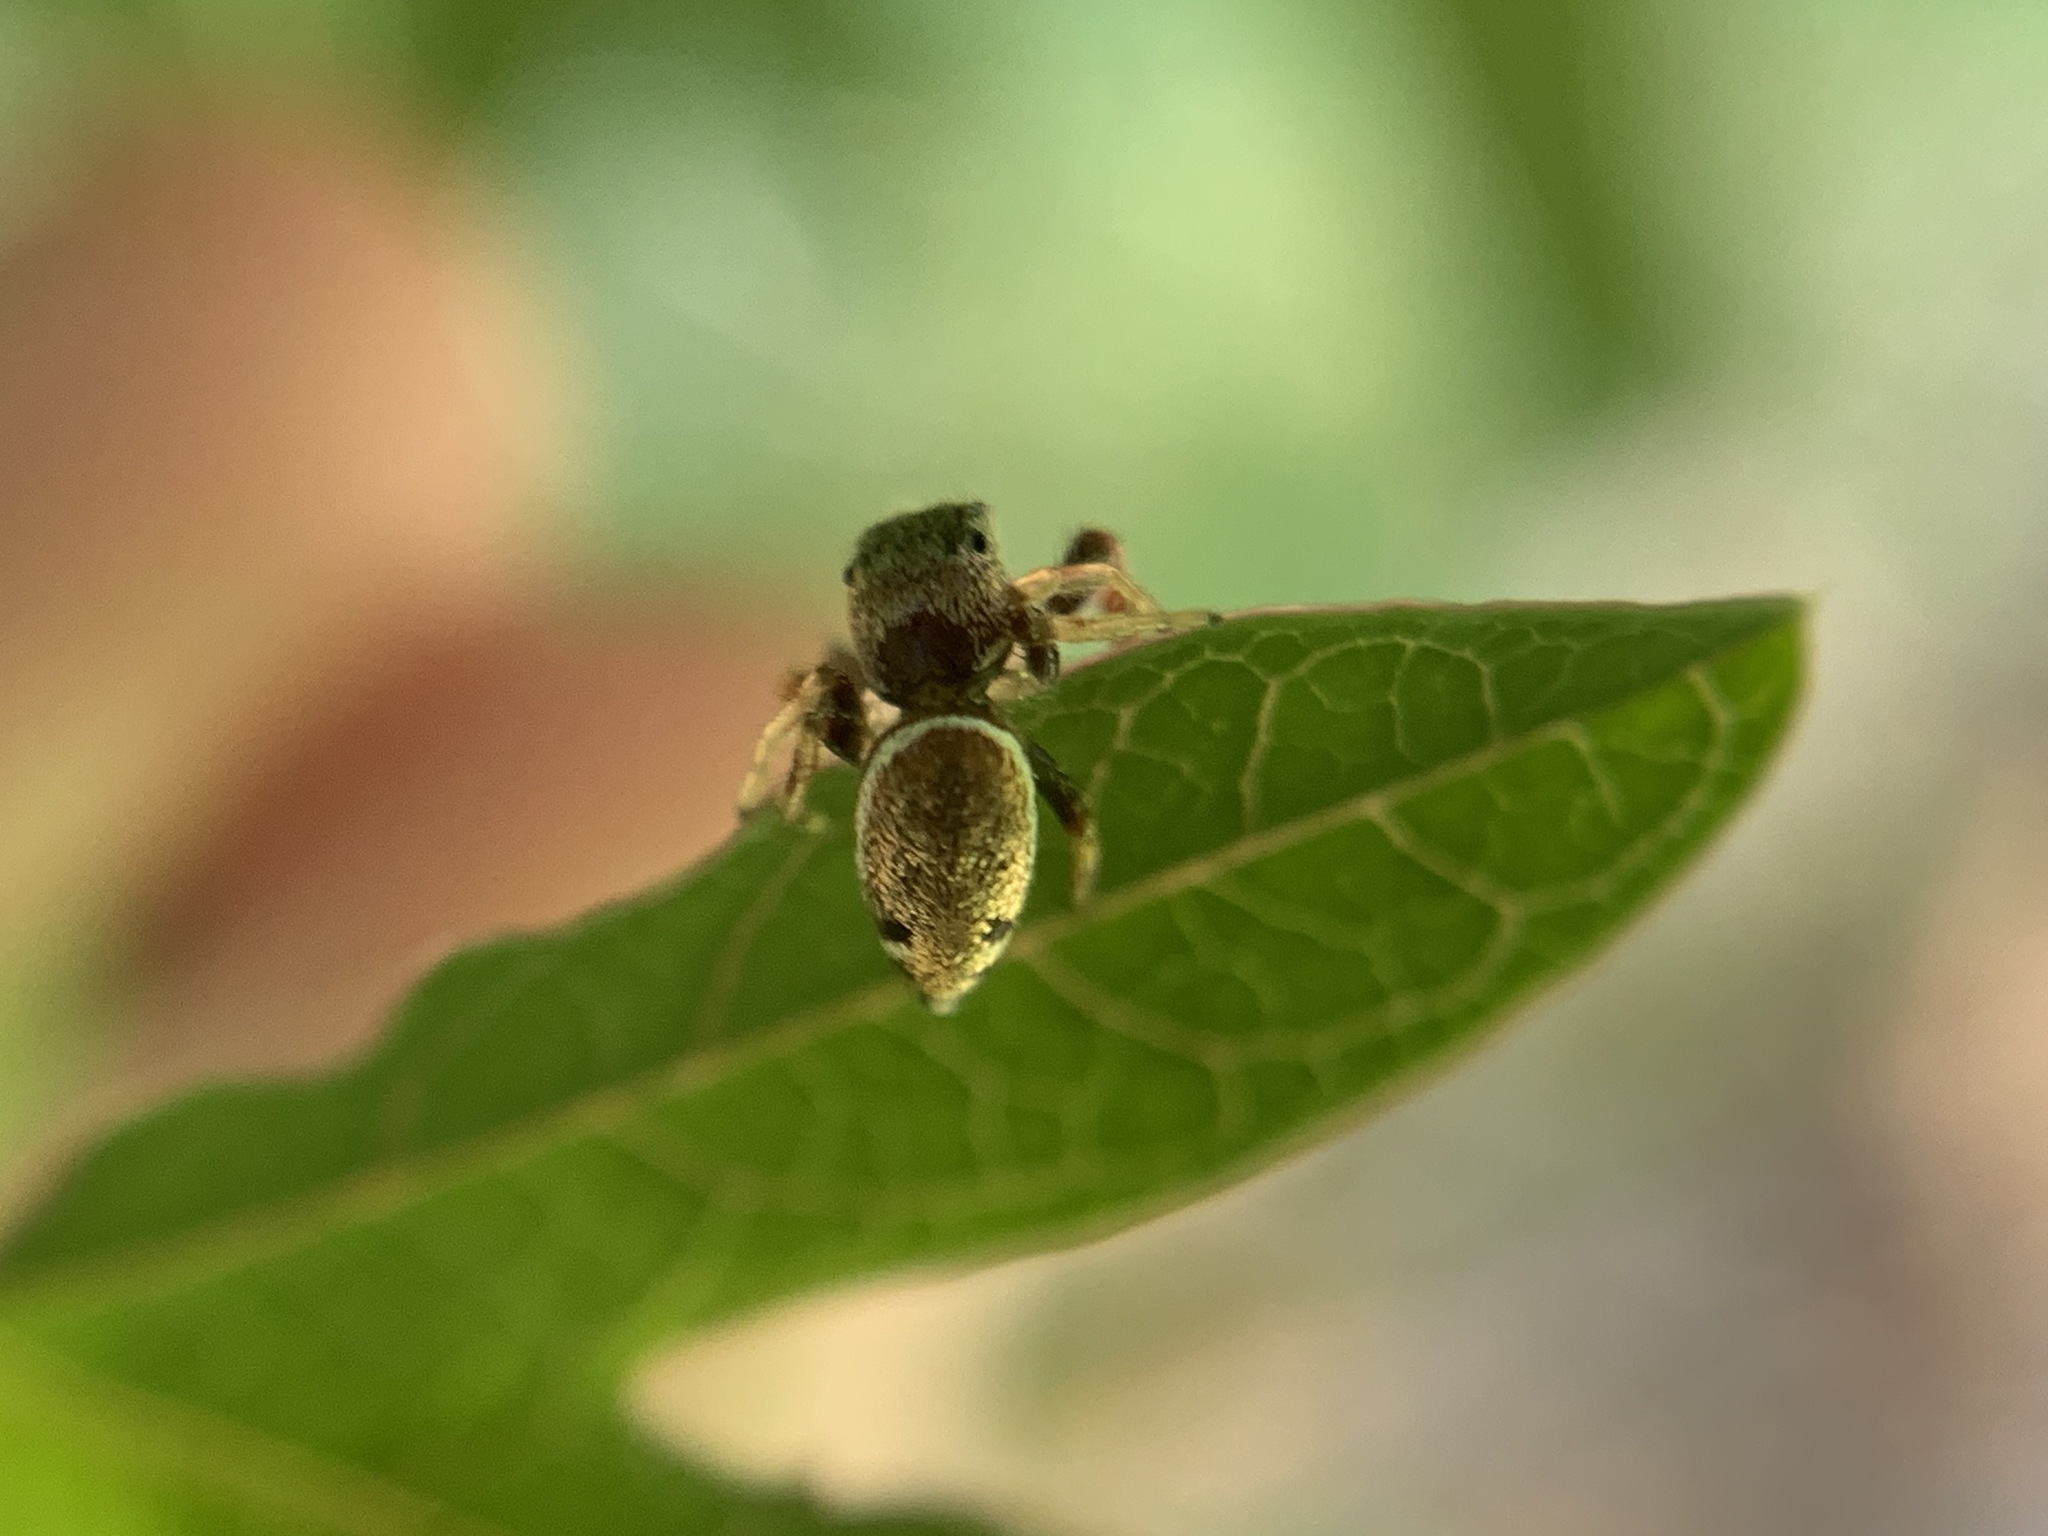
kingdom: Animalia
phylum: Arthropoda
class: Arachnida
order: Araneae
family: Salticidae
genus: Sassacus
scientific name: Sassacus vitis
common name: Jumping spiders
